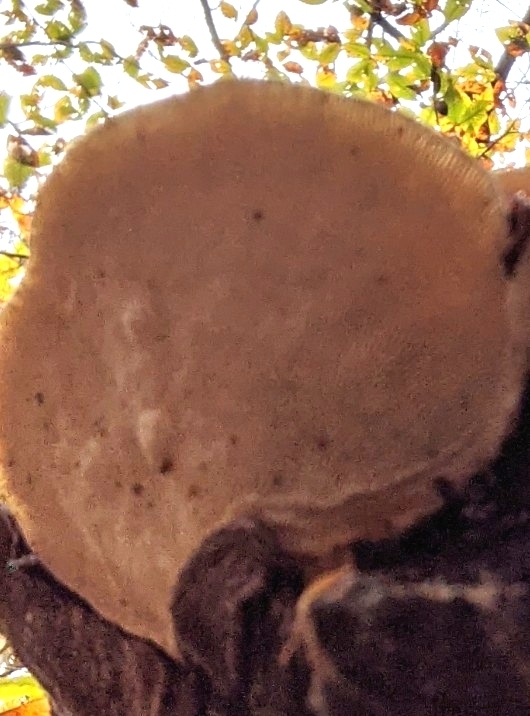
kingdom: Fungi
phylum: Basidiomycota
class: Agaricomycetes
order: Polyporales
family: Polyporaceae
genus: Trametes
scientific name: Trametes gibbosa
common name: Lumpy bracket
